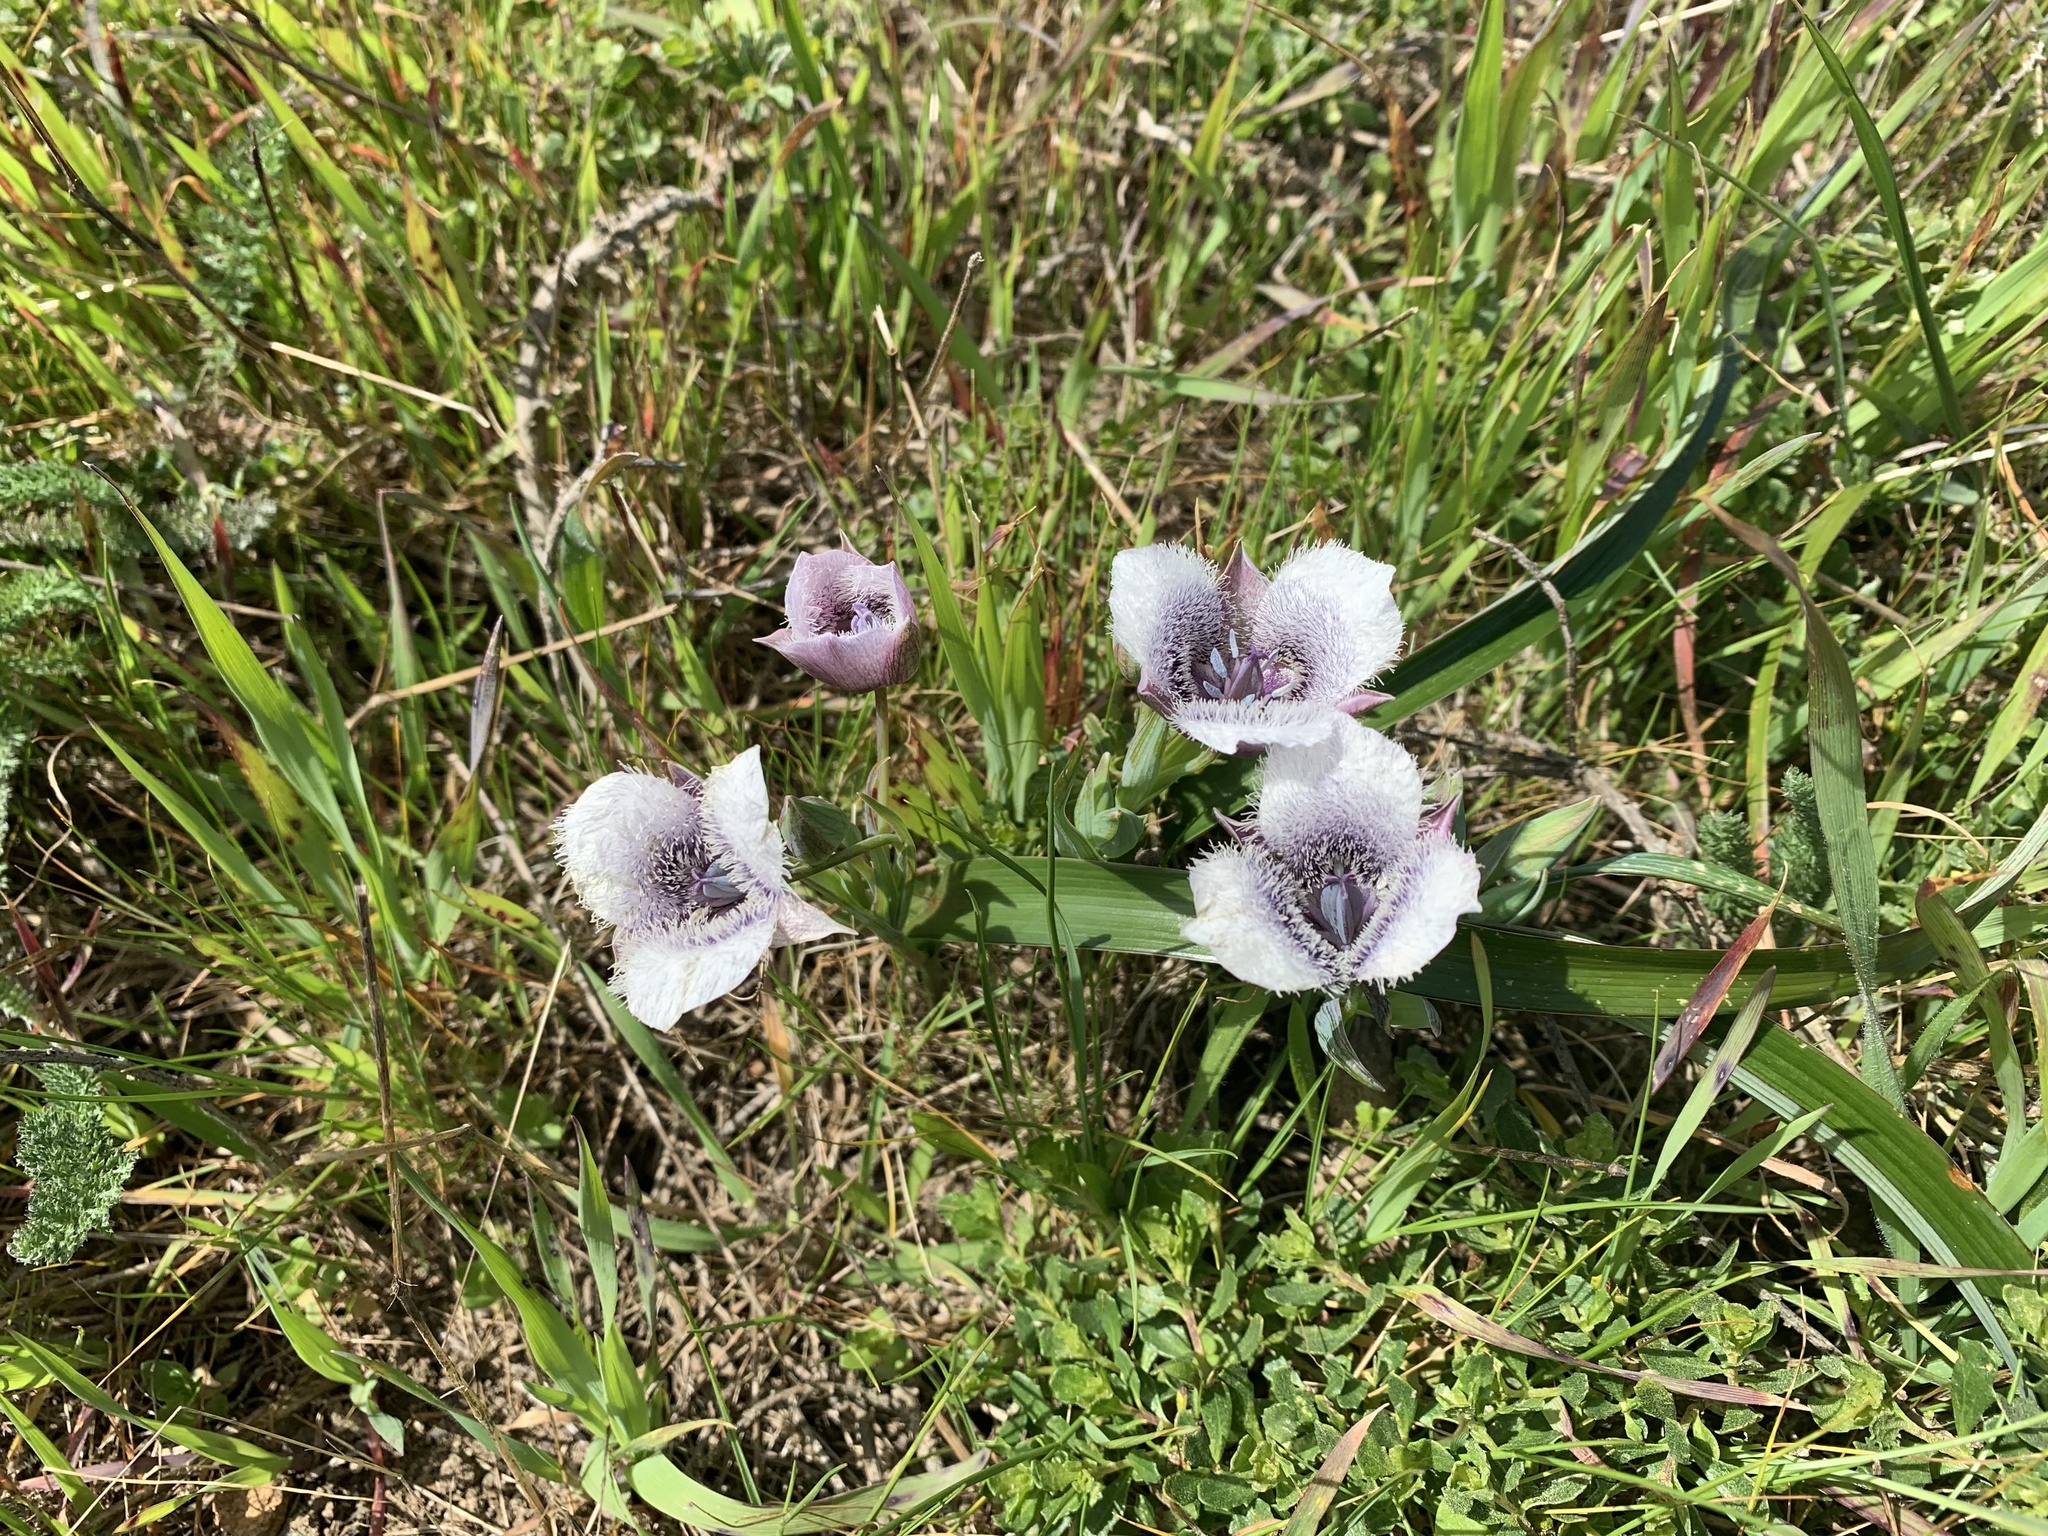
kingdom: Plantae
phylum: Tracheophyta
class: Liliopsida
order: Liliales
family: Liliaceae
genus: Calochortus
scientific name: Calochortus tolmiei
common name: Pussy-ears
